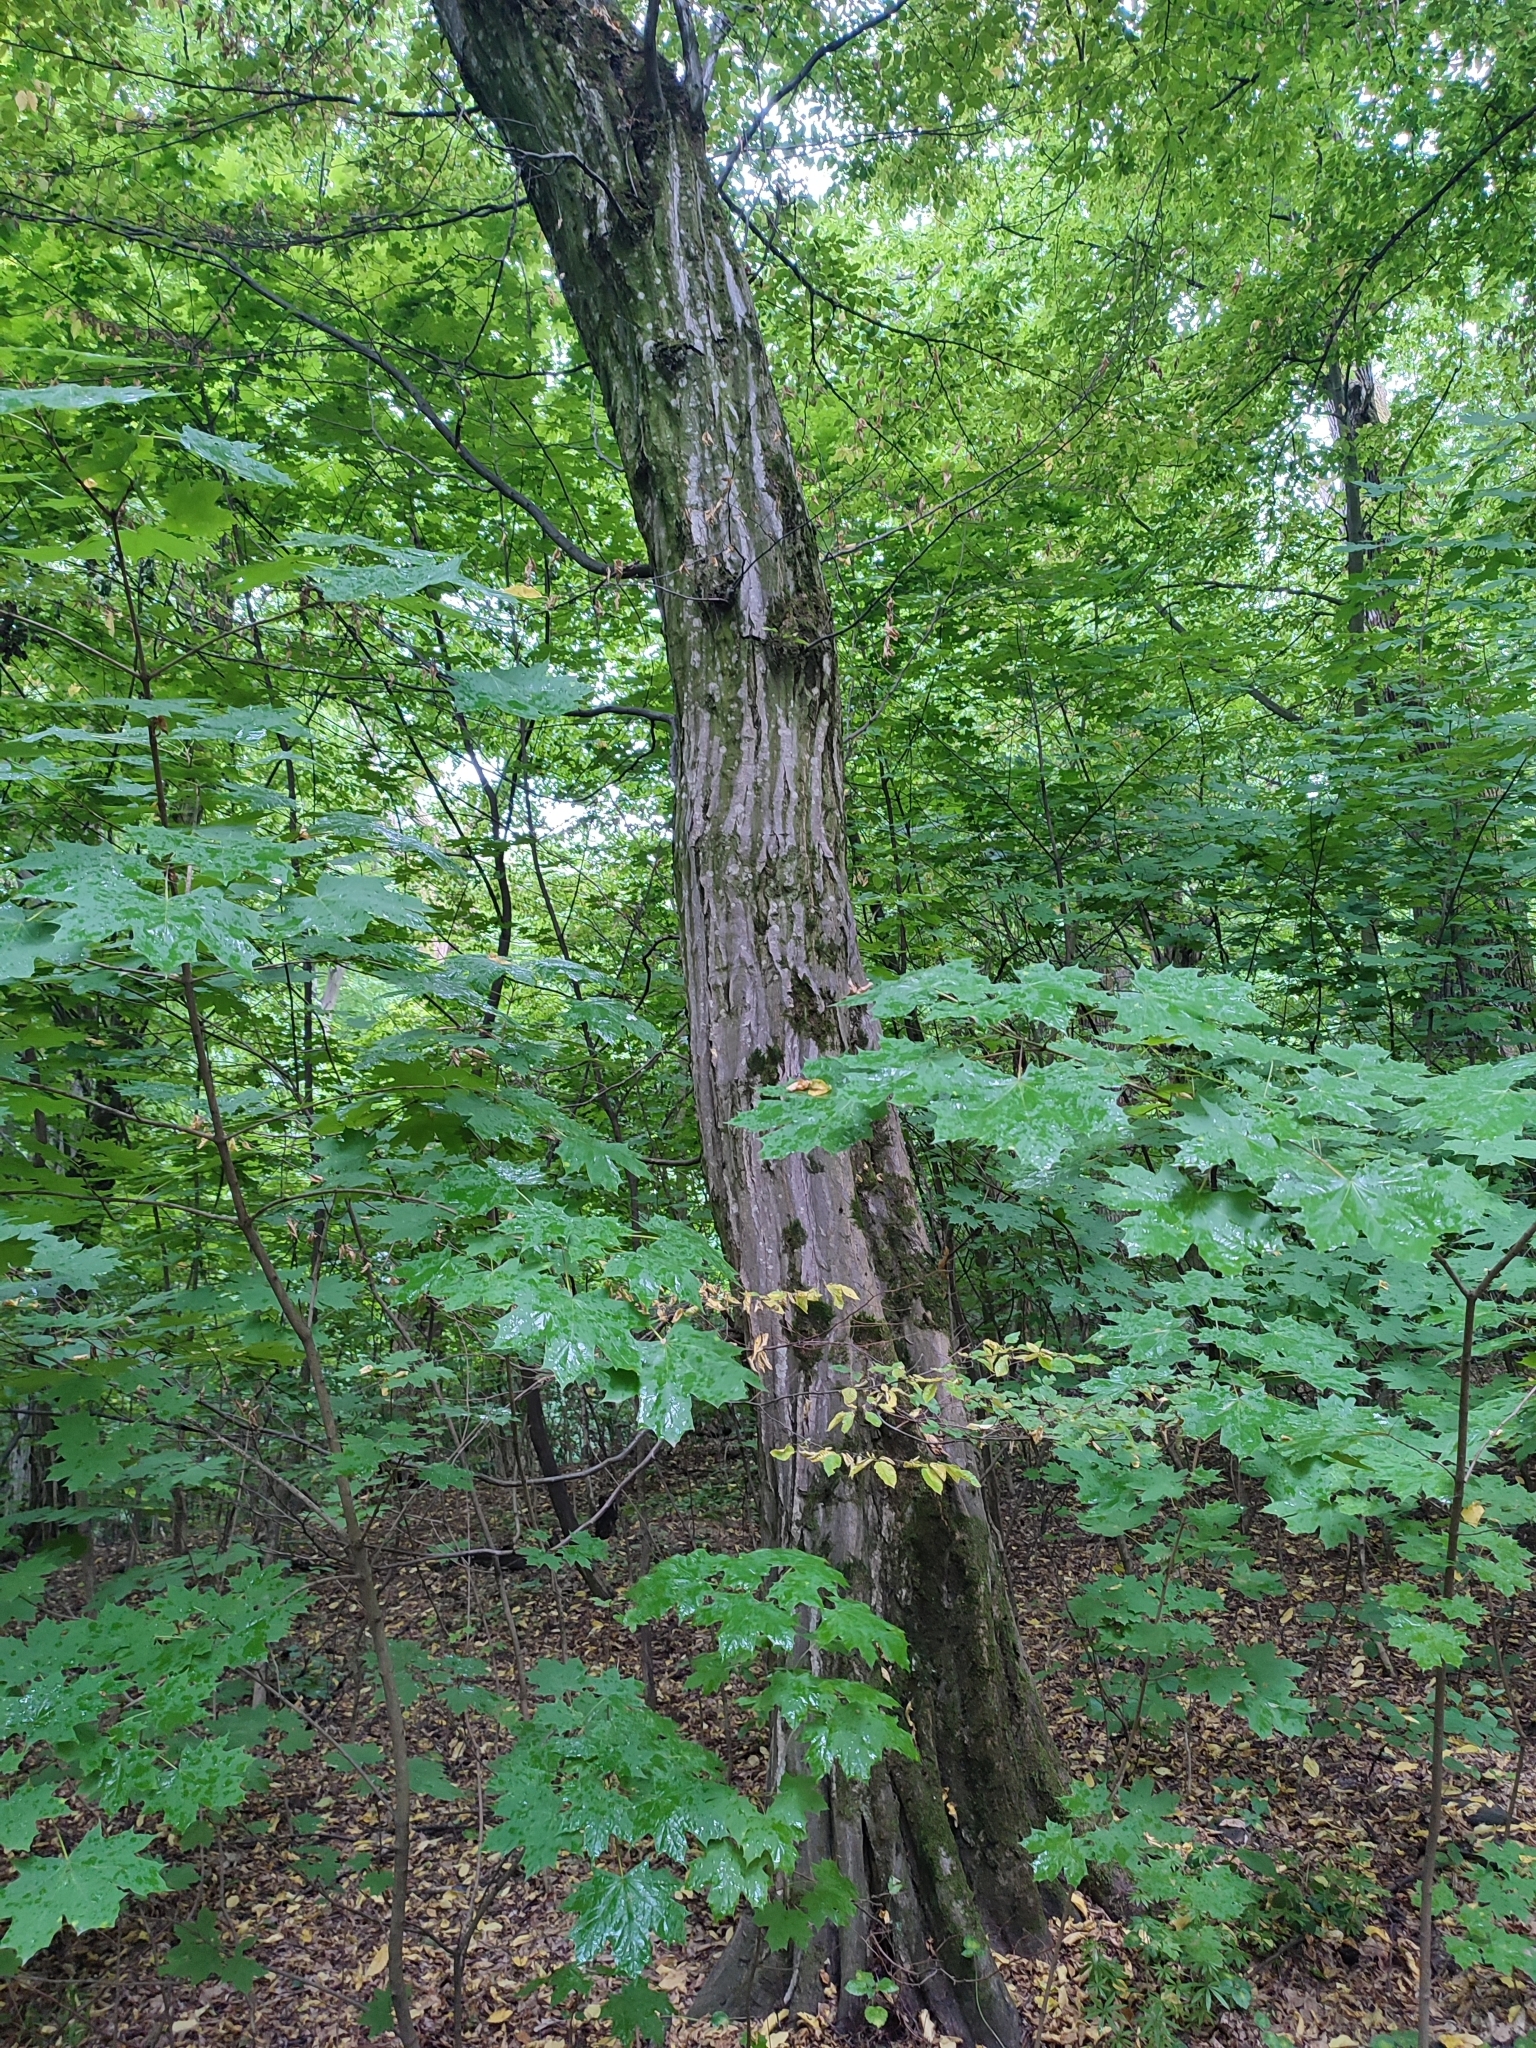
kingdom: Plantae
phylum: Tracheophyta
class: Magnoliopsida
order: Fagales
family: Betulaceae
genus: Carpinus
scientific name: Carpinus betulus
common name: Hornbeam
